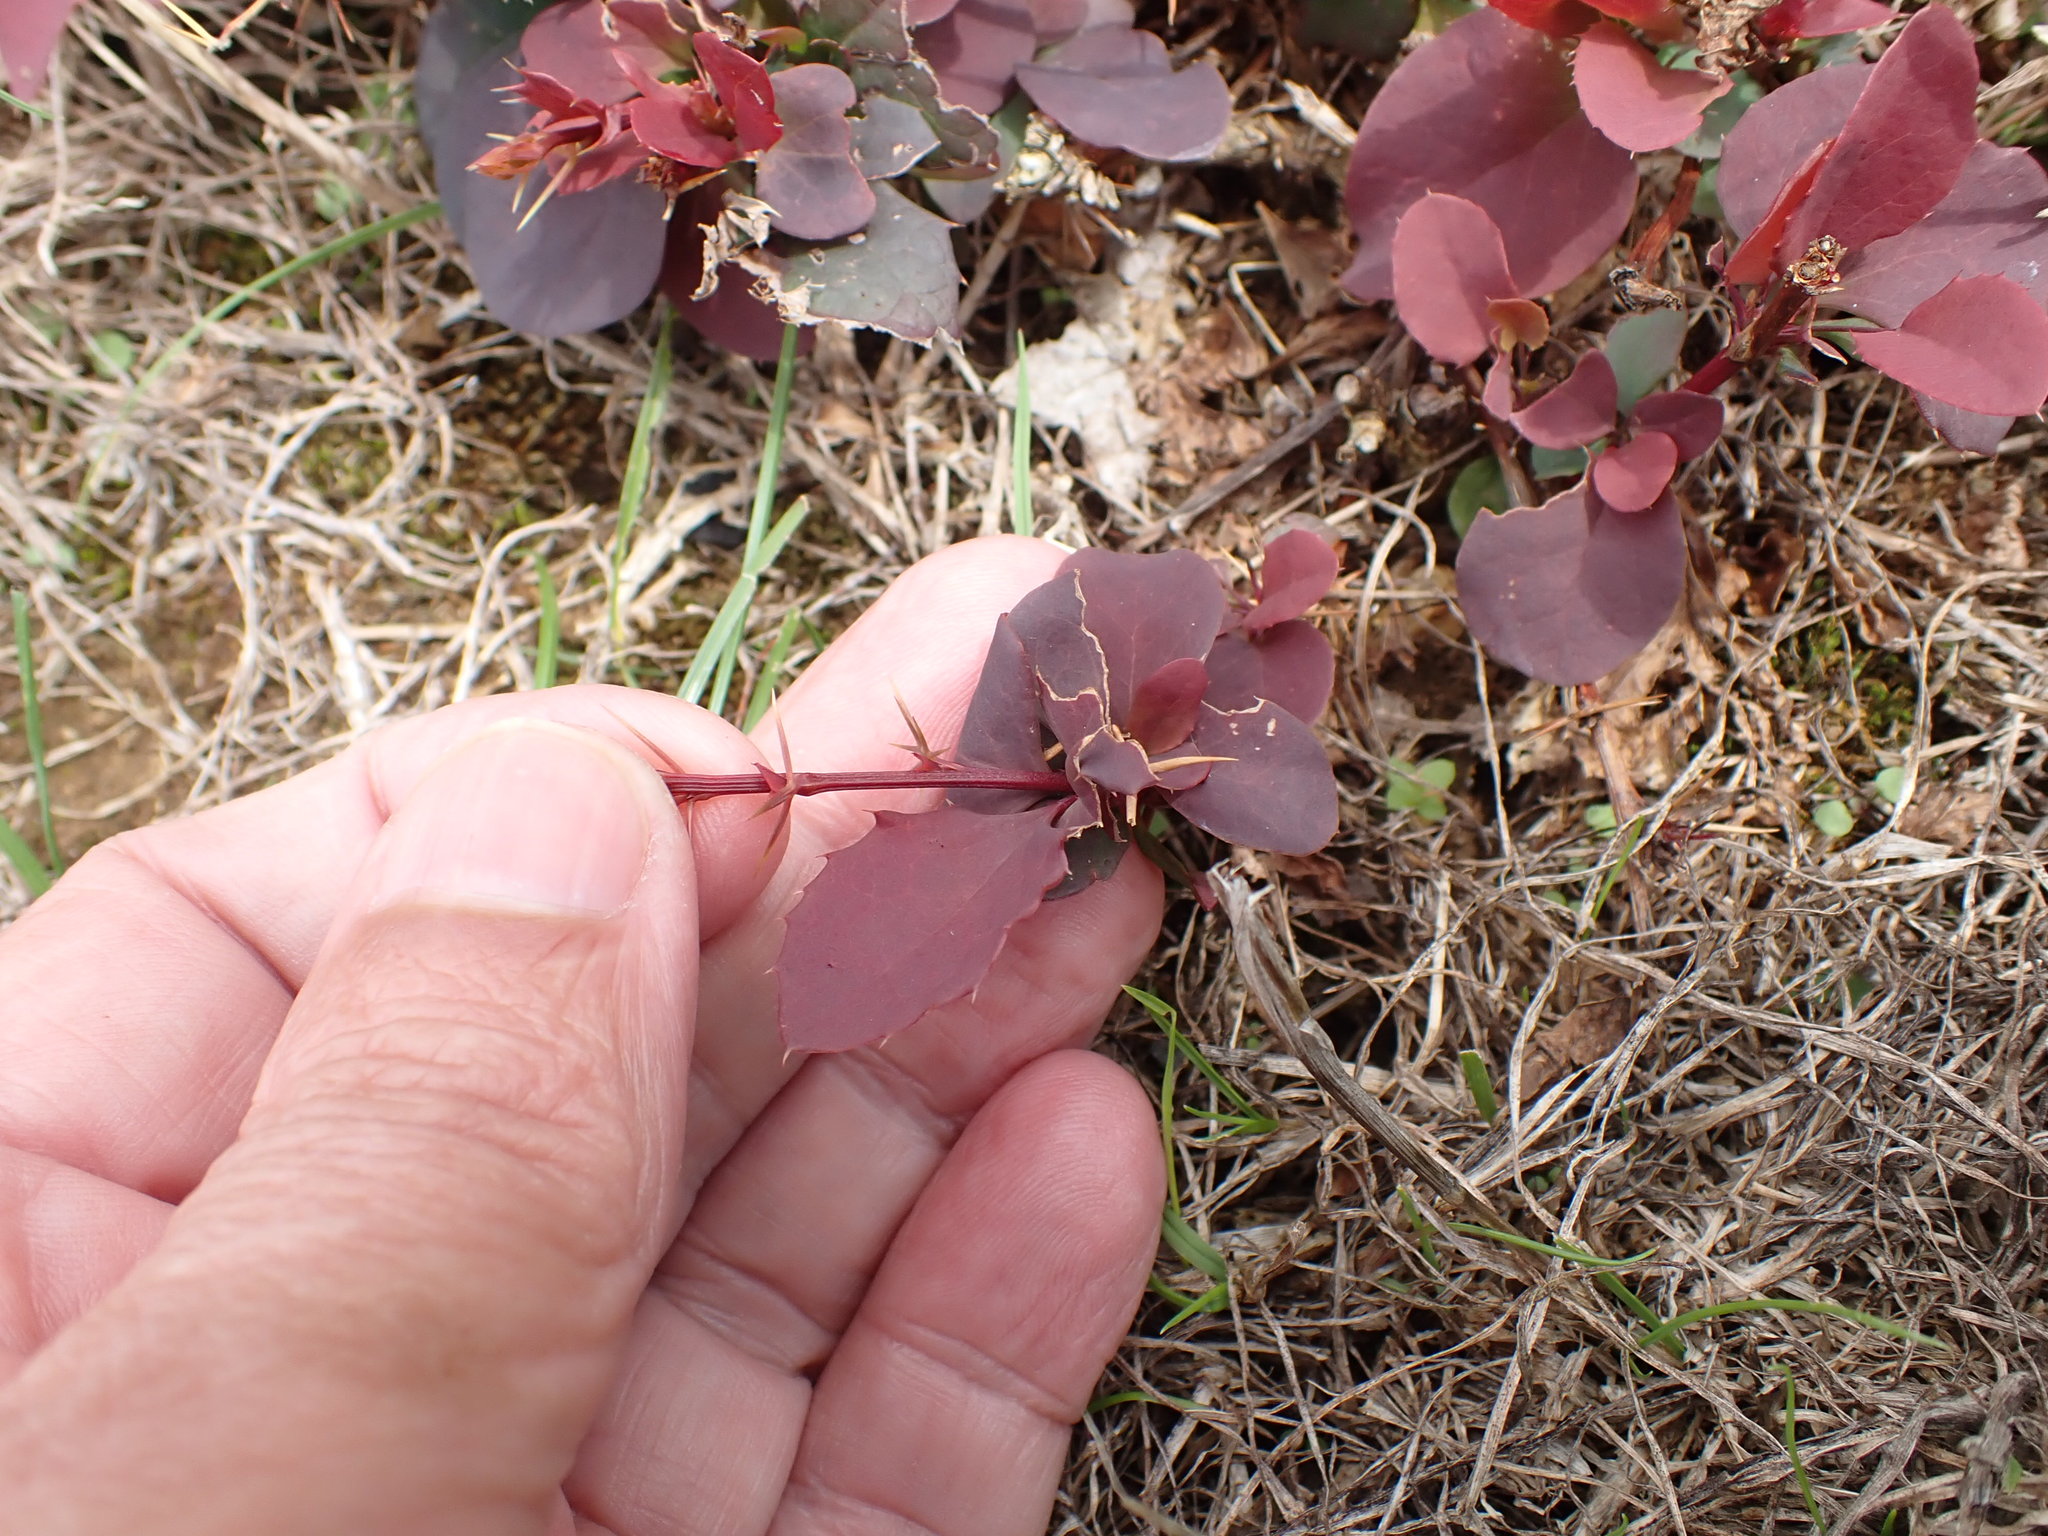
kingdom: Plantae
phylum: Tracheophyta
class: Magnoliopsida
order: Ranunculales
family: Berberidaceae
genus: Berberis
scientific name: Berberis thunbergii
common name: Japanese barberry
